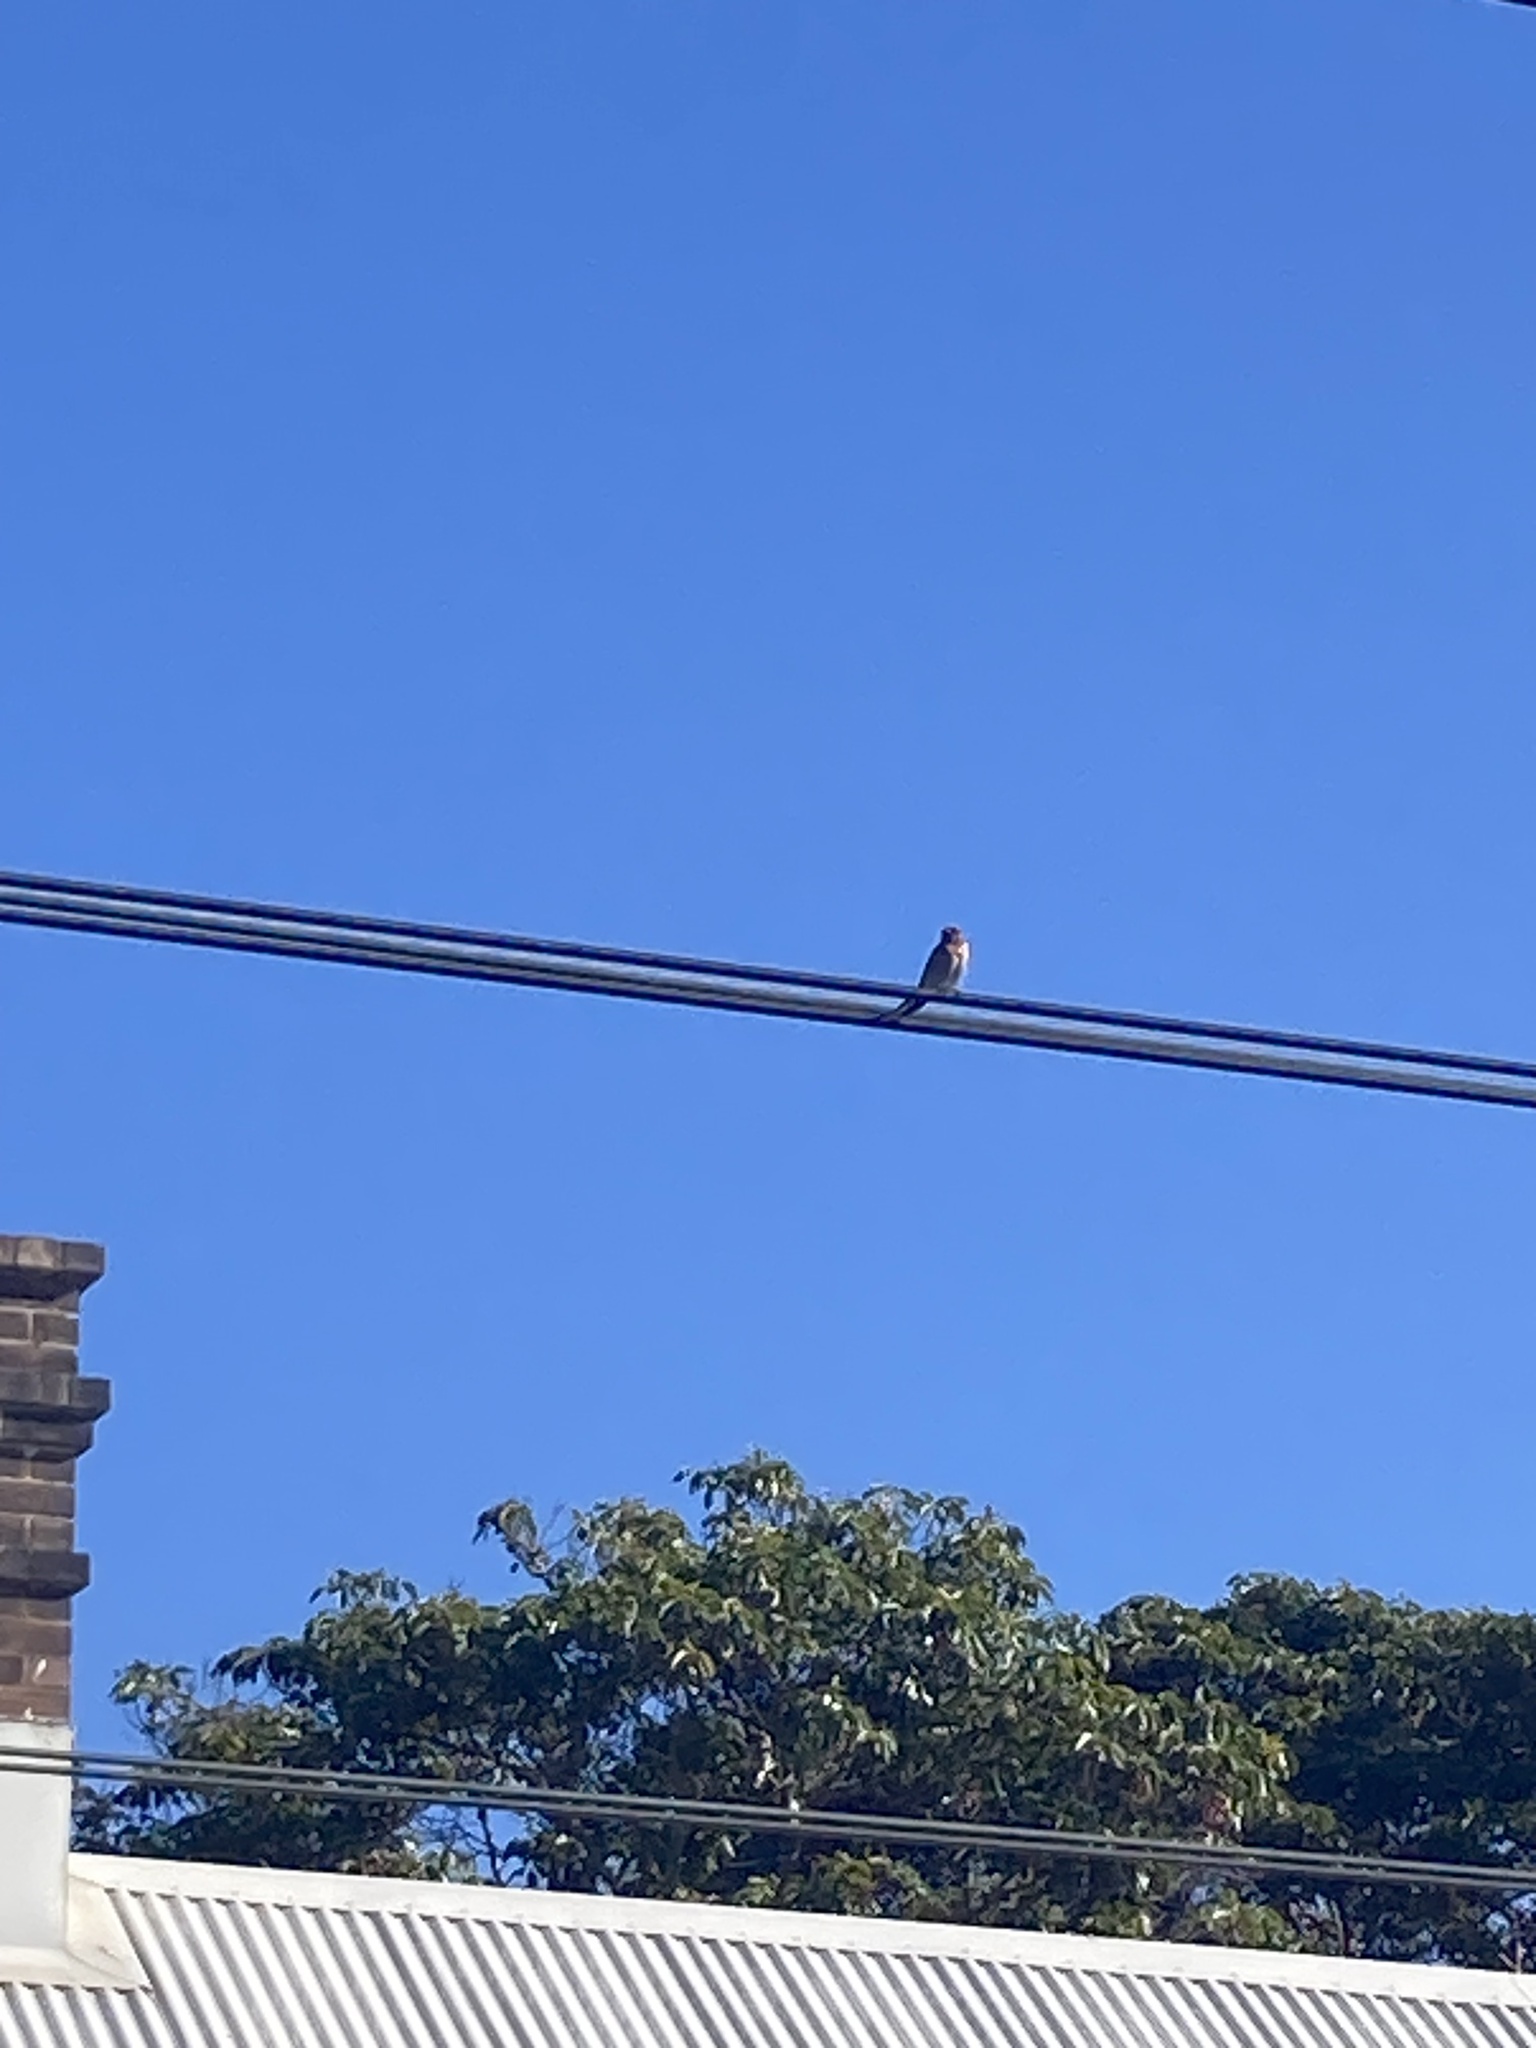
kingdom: Animalia
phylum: Chordata
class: Aves
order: Passeriformes
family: Hirundinidae
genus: Hirundo
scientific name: Hirundo neoxena
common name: Welcome swallow
